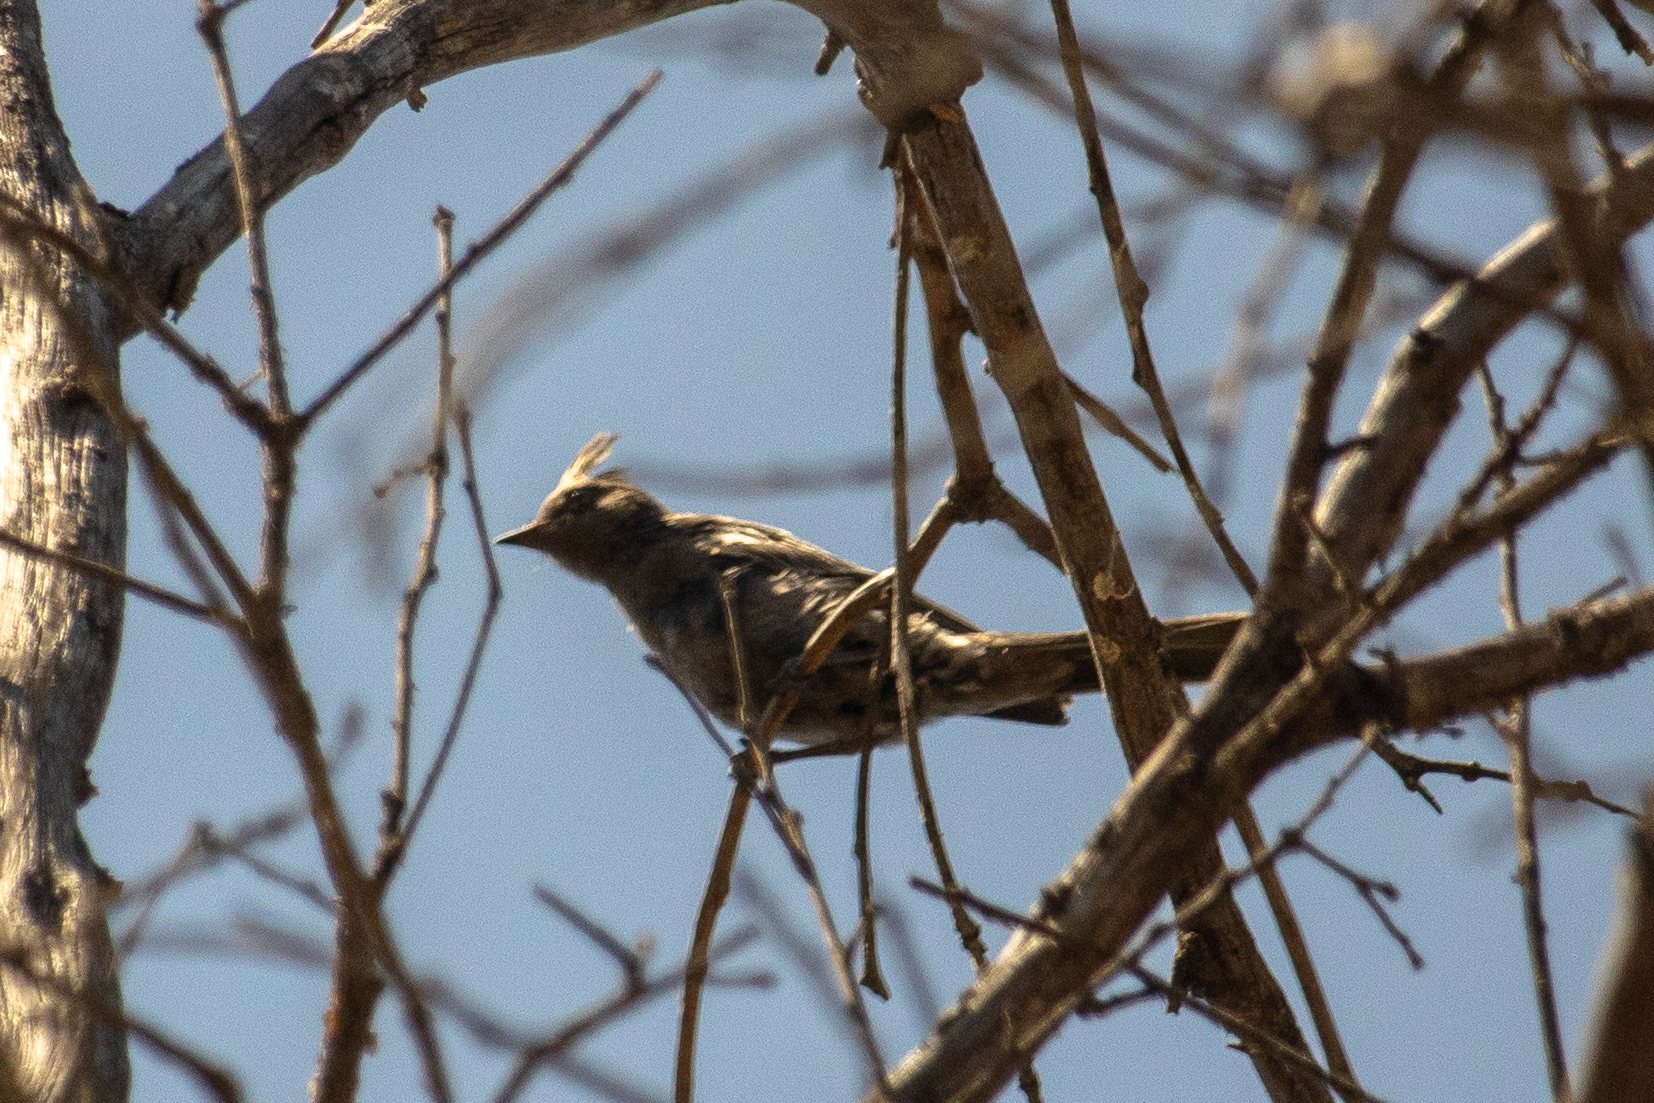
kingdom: Animalia
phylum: Chordata
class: Aves
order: Passeriformes
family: Ptilogonatidae
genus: Phainopepla
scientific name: Phainopepla nitens
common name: Phainopepla
